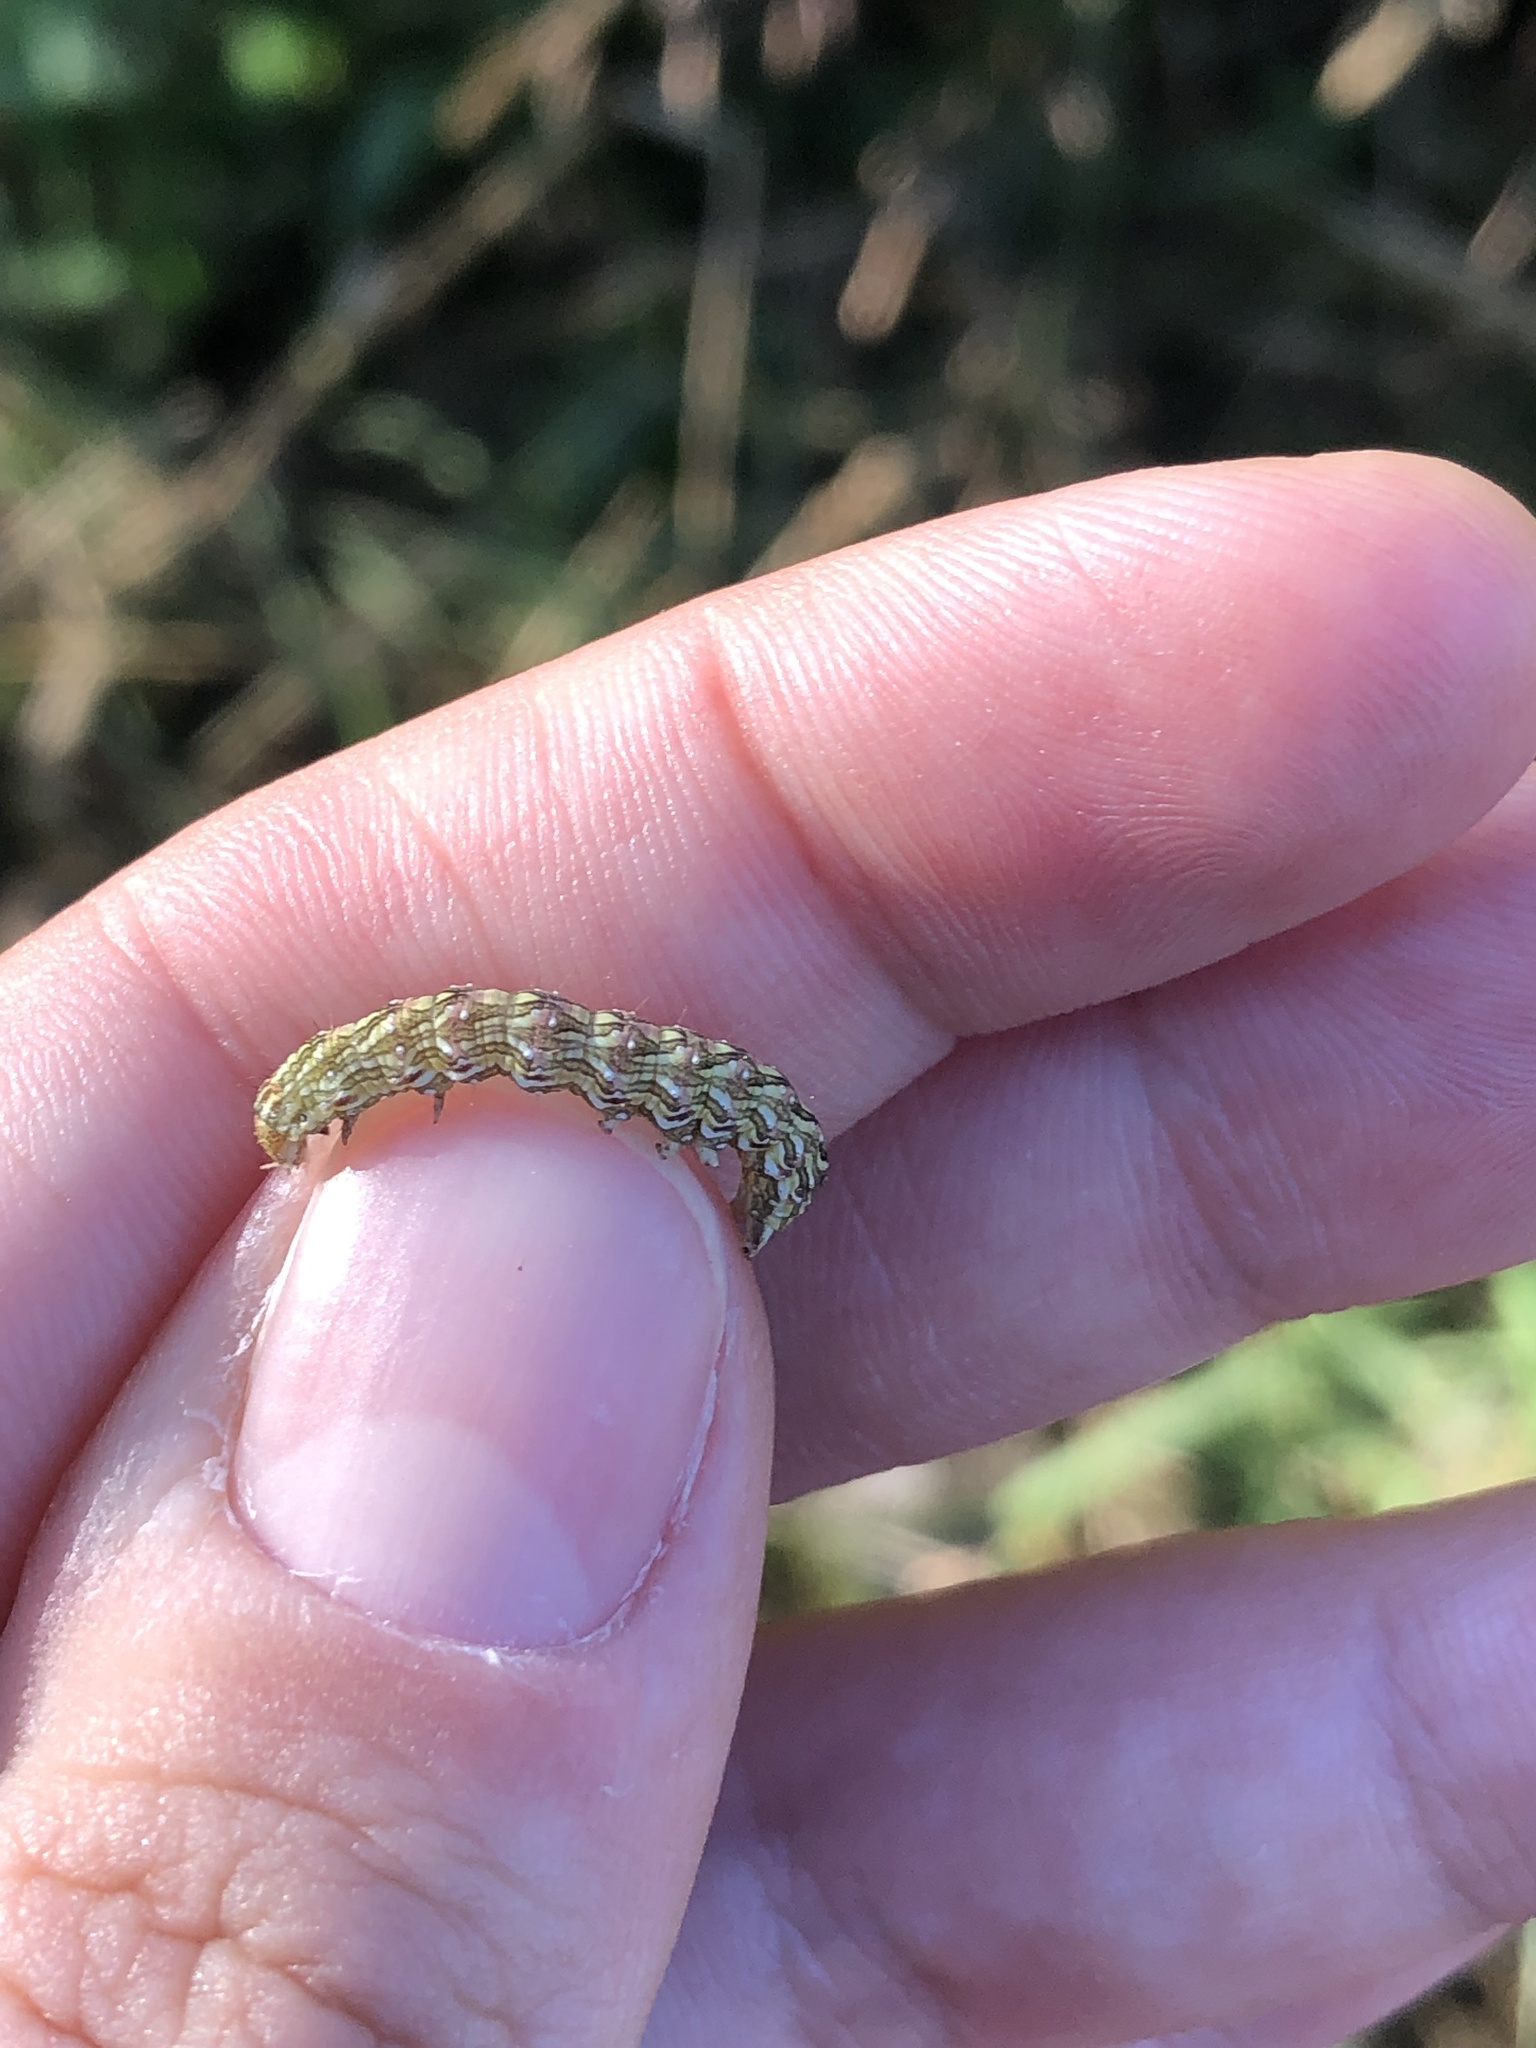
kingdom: Animalia
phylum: Arthropoda
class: Insecta
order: Lepidoptera
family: Noctuidae
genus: Cucullia
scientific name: Cucullia chamomillae
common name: Chamomile shark
